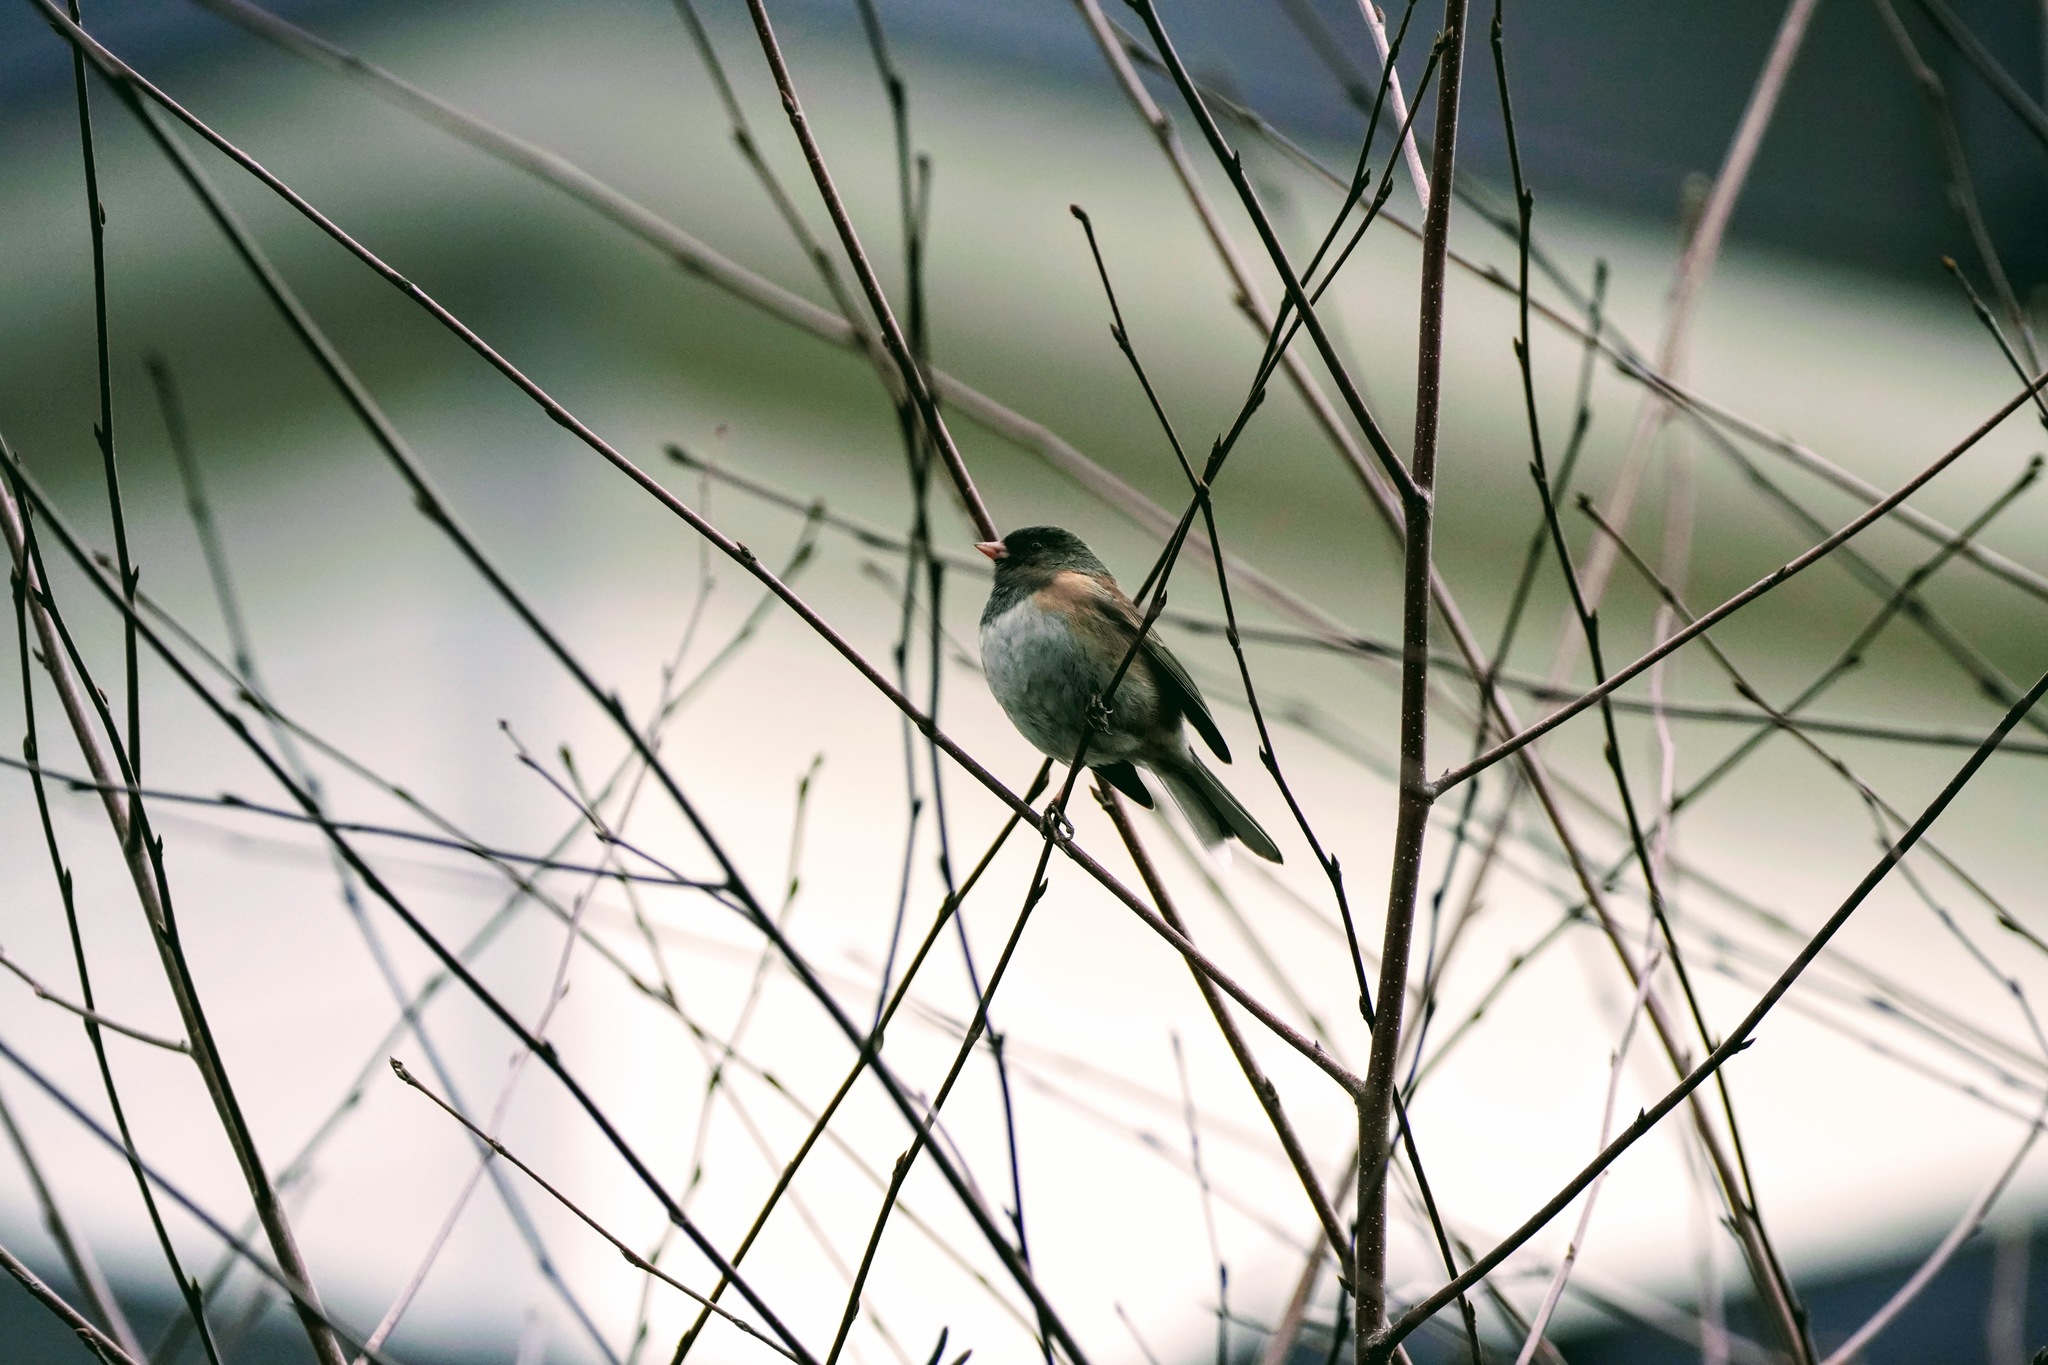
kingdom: Animalia
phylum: Chordata
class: Aves
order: Passeriformes
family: Passerellidae
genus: Junco
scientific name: Junco hyemalis
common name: Dark-eyed junco
